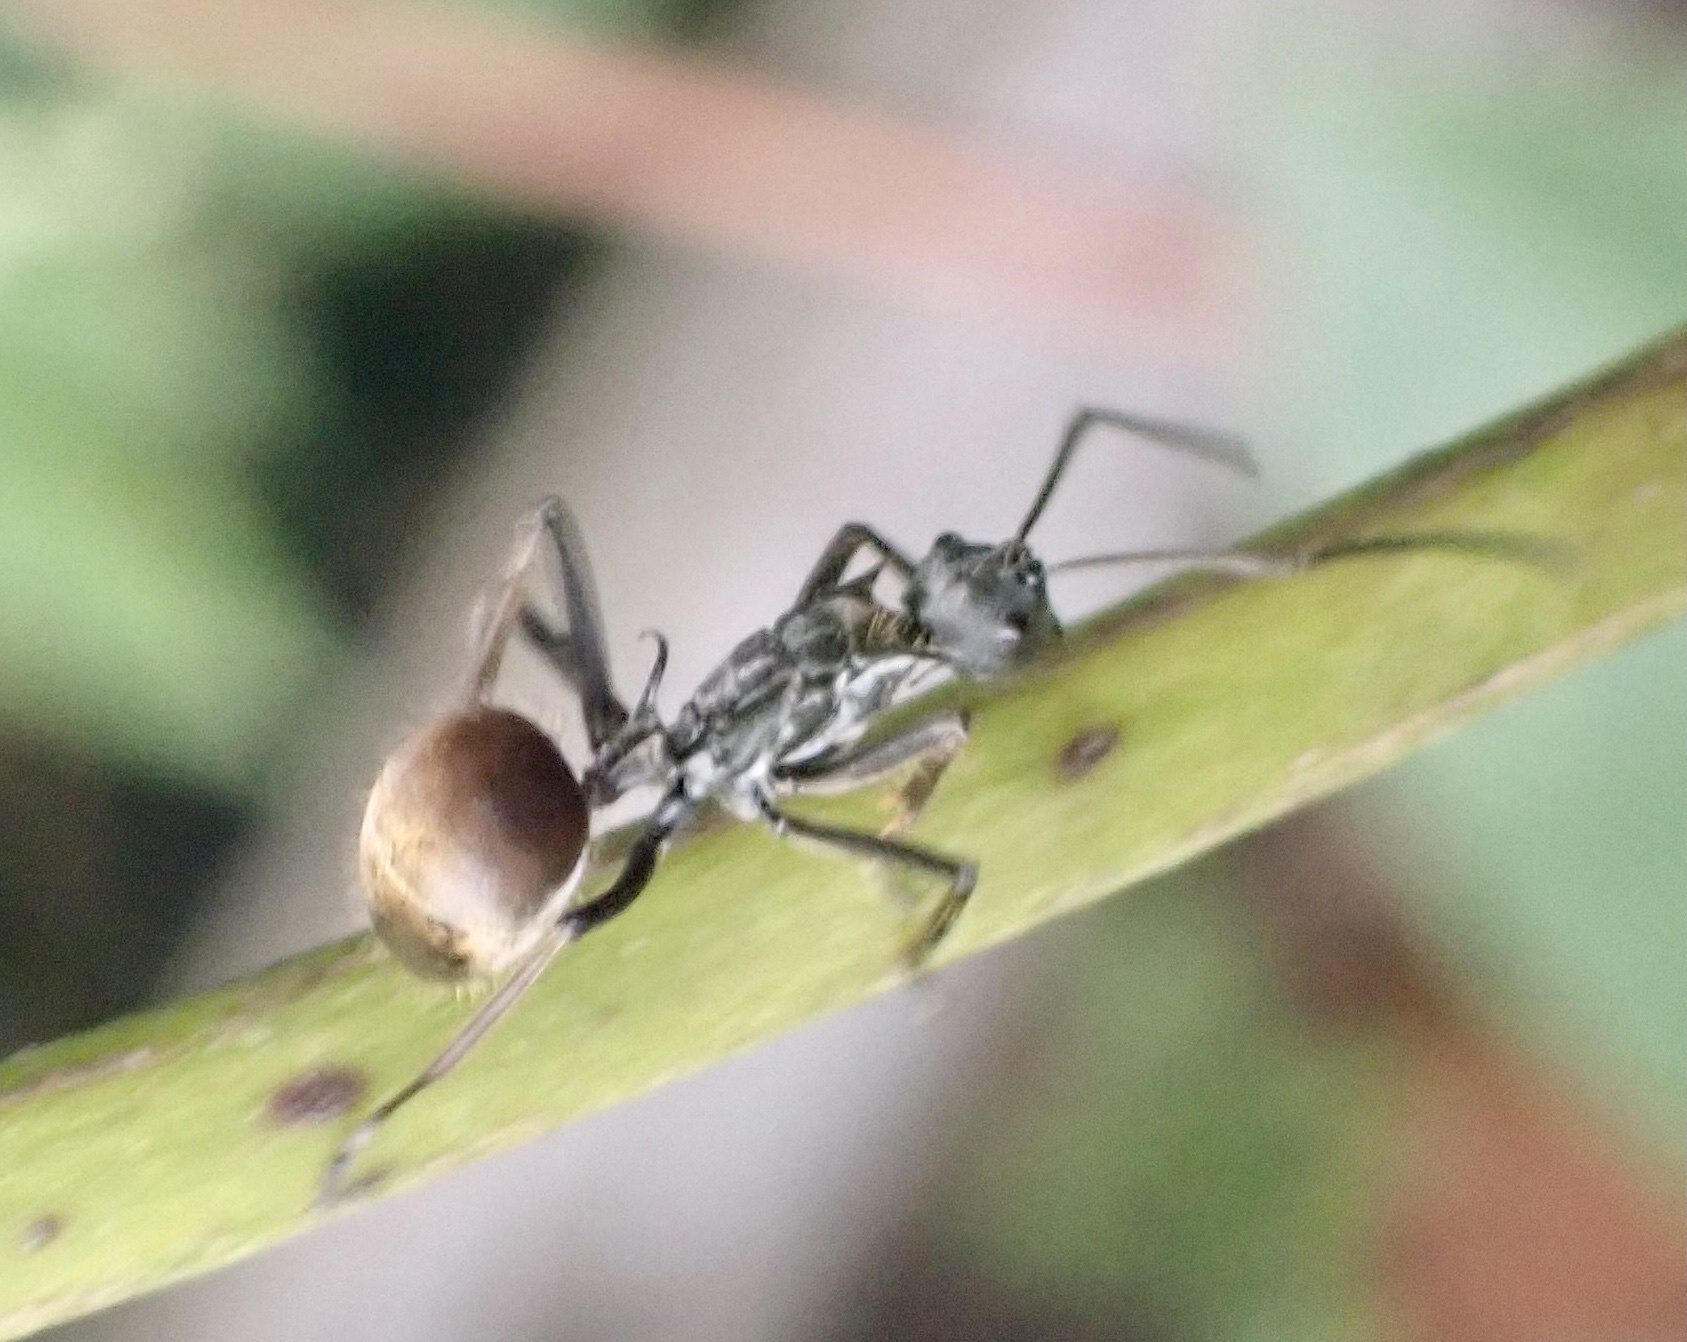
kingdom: Animalia
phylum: Arthropoda
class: Insecta
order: Hymenoptera
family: Formicidae
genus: Polyrhachis
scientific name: Polyrhachis laboriosa
